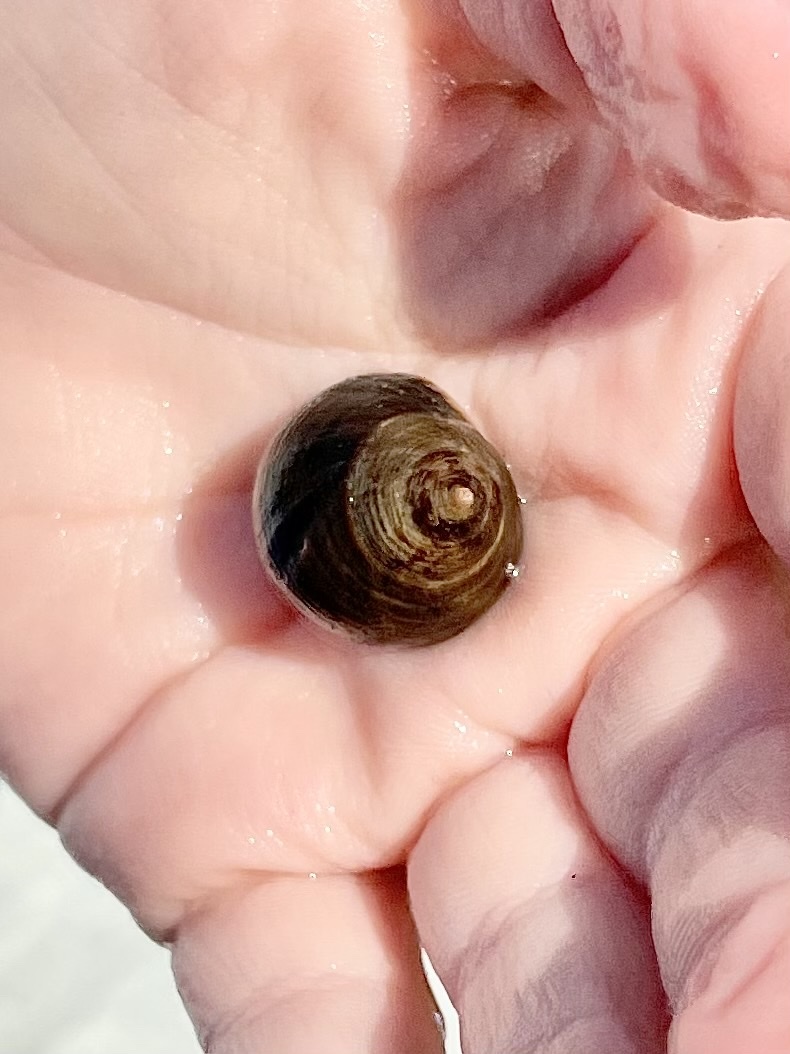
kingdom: Animalia
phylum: Mollusca
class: Gastropoda
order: Littorinimorpha
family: Littorinidae
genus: Littorina
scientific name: Littorina littorea
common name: Common periwinkle
